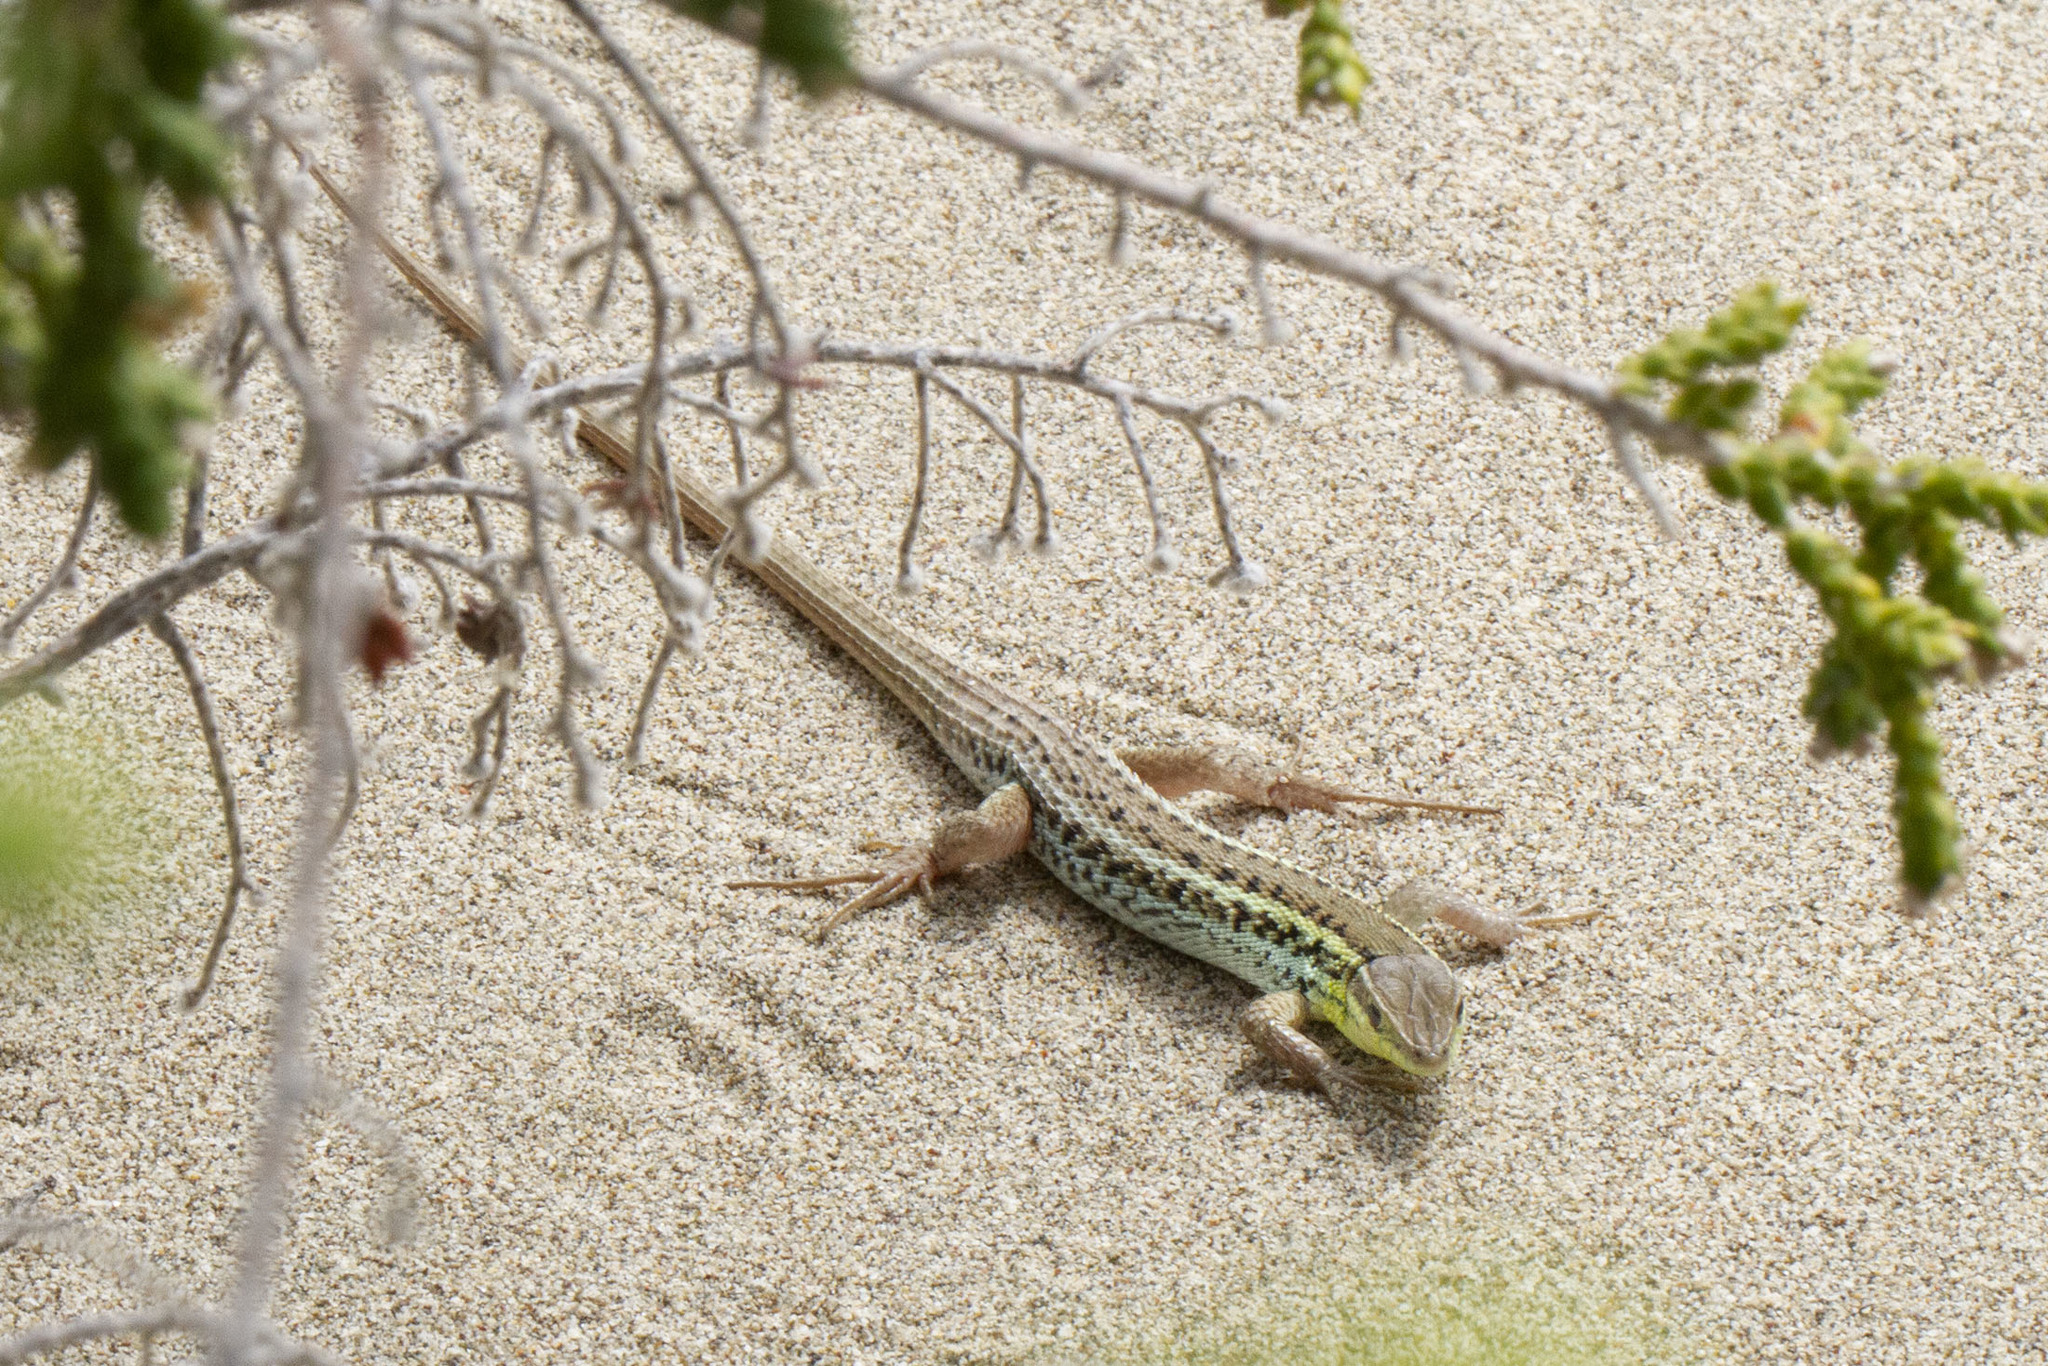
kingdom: Animalia
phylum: Chordata
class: Squamata
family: Lacertidae
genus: Ophisops
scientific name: Ophisops elegans
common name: Snake-eyed lizard
